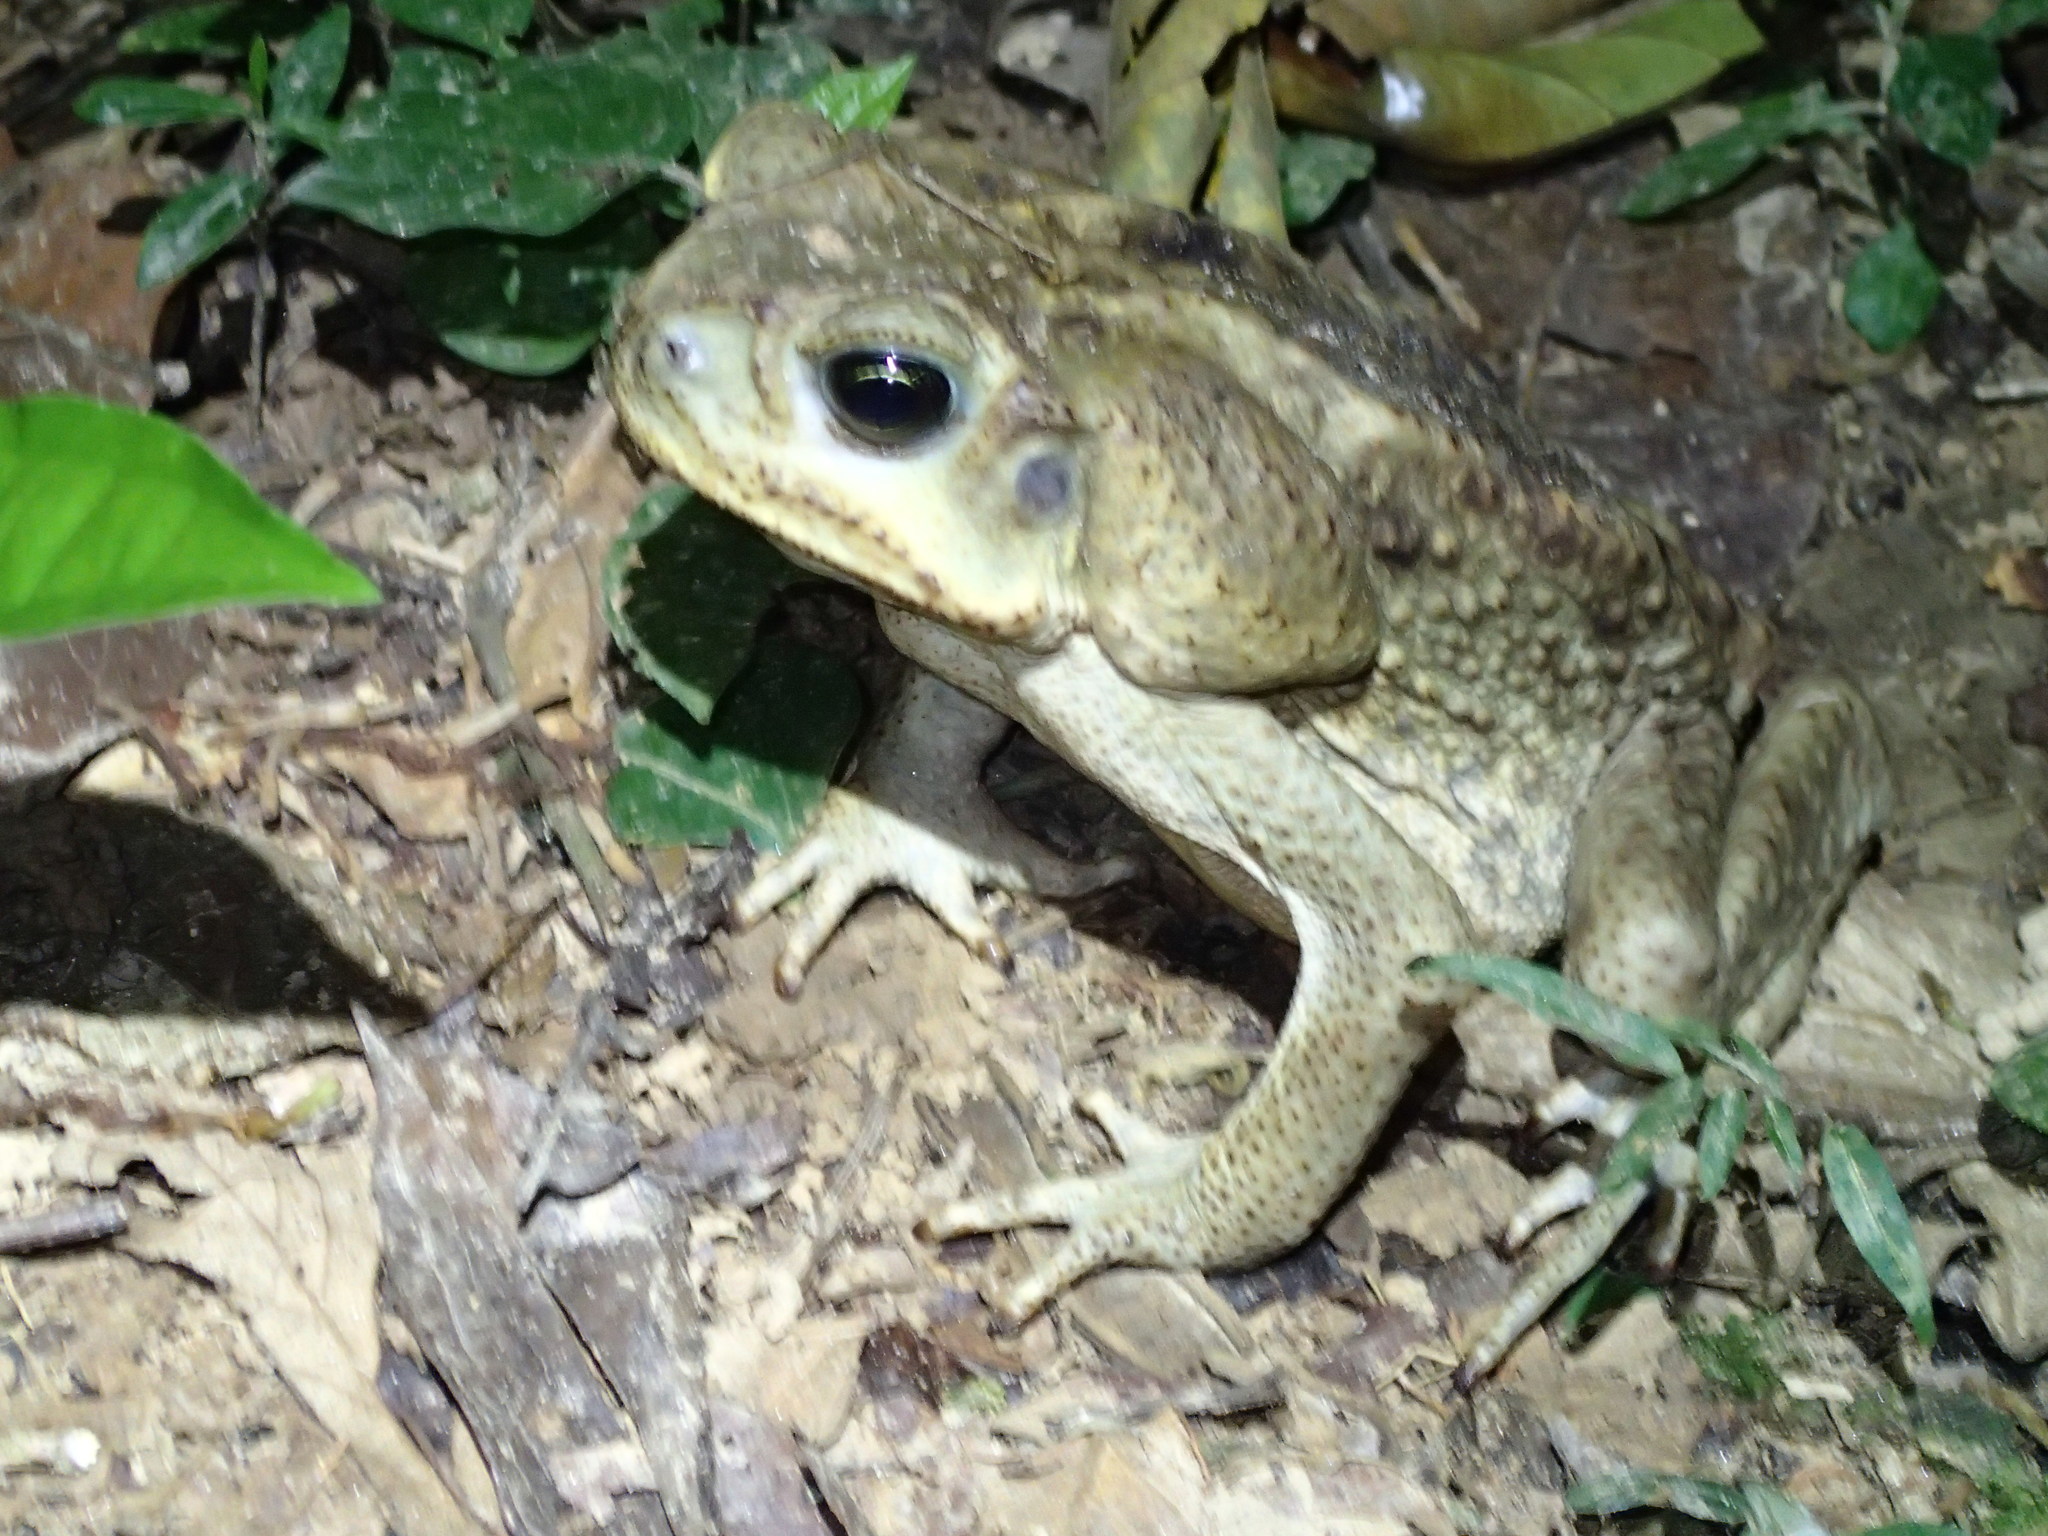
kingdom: Animalia
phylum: Chordata
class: Amphibia
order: Anura
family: Bufonidae
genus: Rhinella
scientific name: Rhinella horribilis
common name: Mesoamerican cane toad
